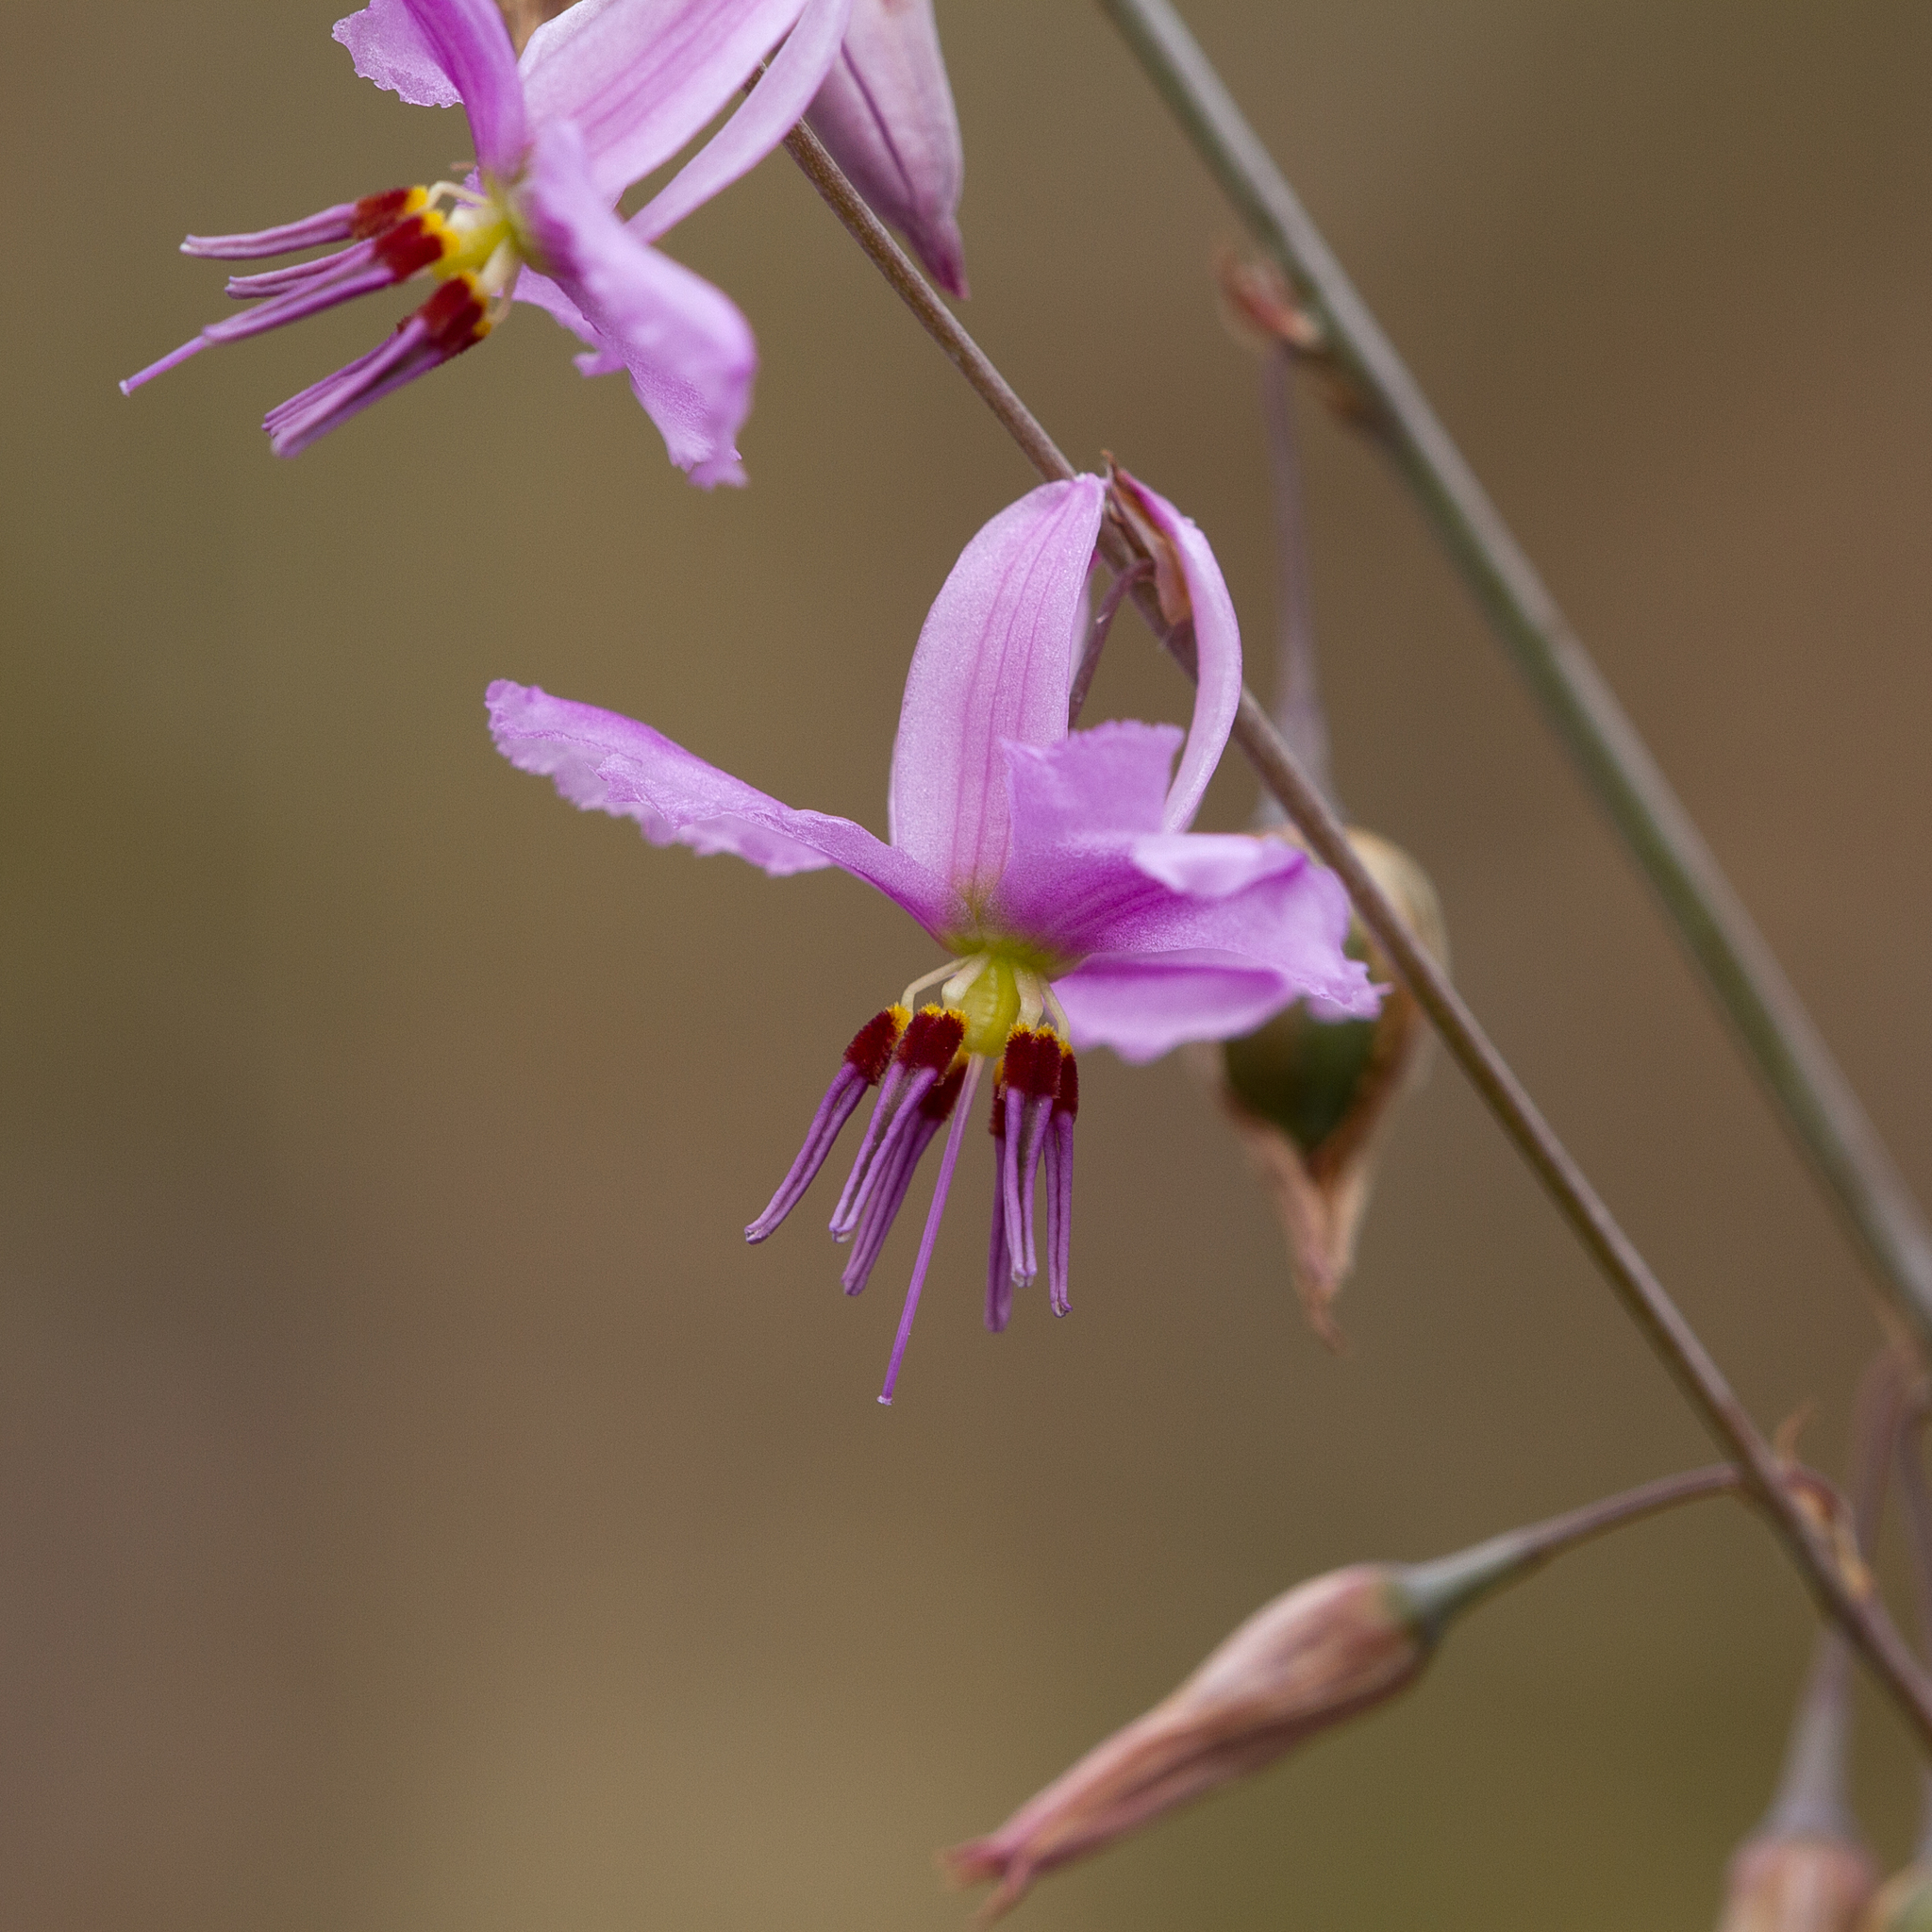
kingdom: Plantae
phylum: Tracheophyta
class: Liliopsida
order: Asparagales
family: Asparagaceae
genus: Dichopogon
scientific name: Dichopogon fimbriatus
